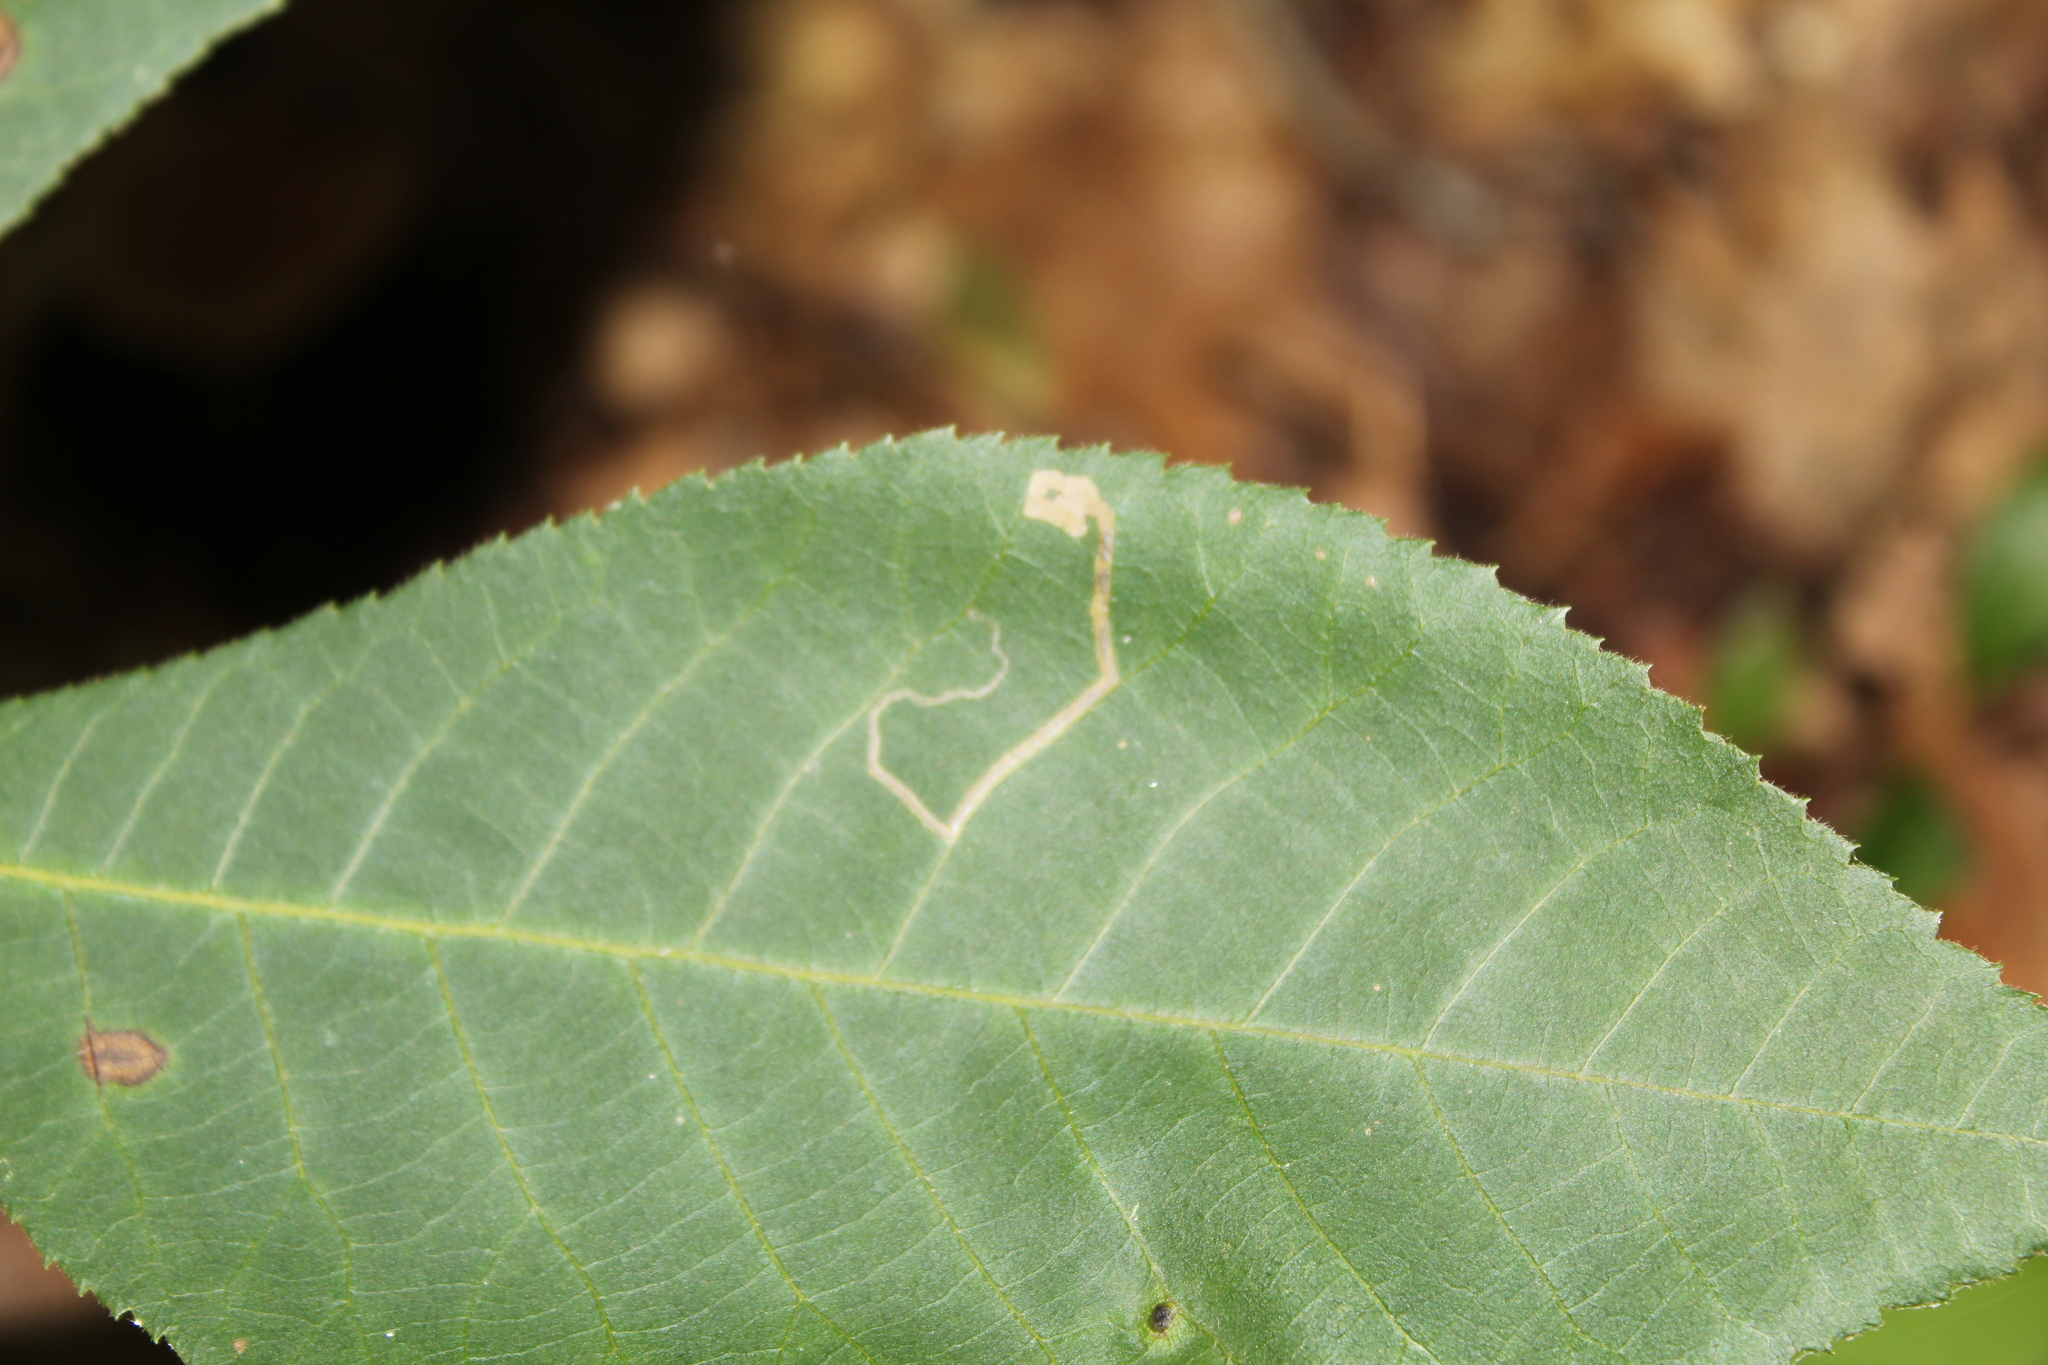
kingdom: Animalia
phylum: Arthropoda
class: Insecta
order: Lepidoptera
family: Nepticulidae
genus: Stigmella
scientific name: Stigmella betulicola
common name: Common birch pigmy
